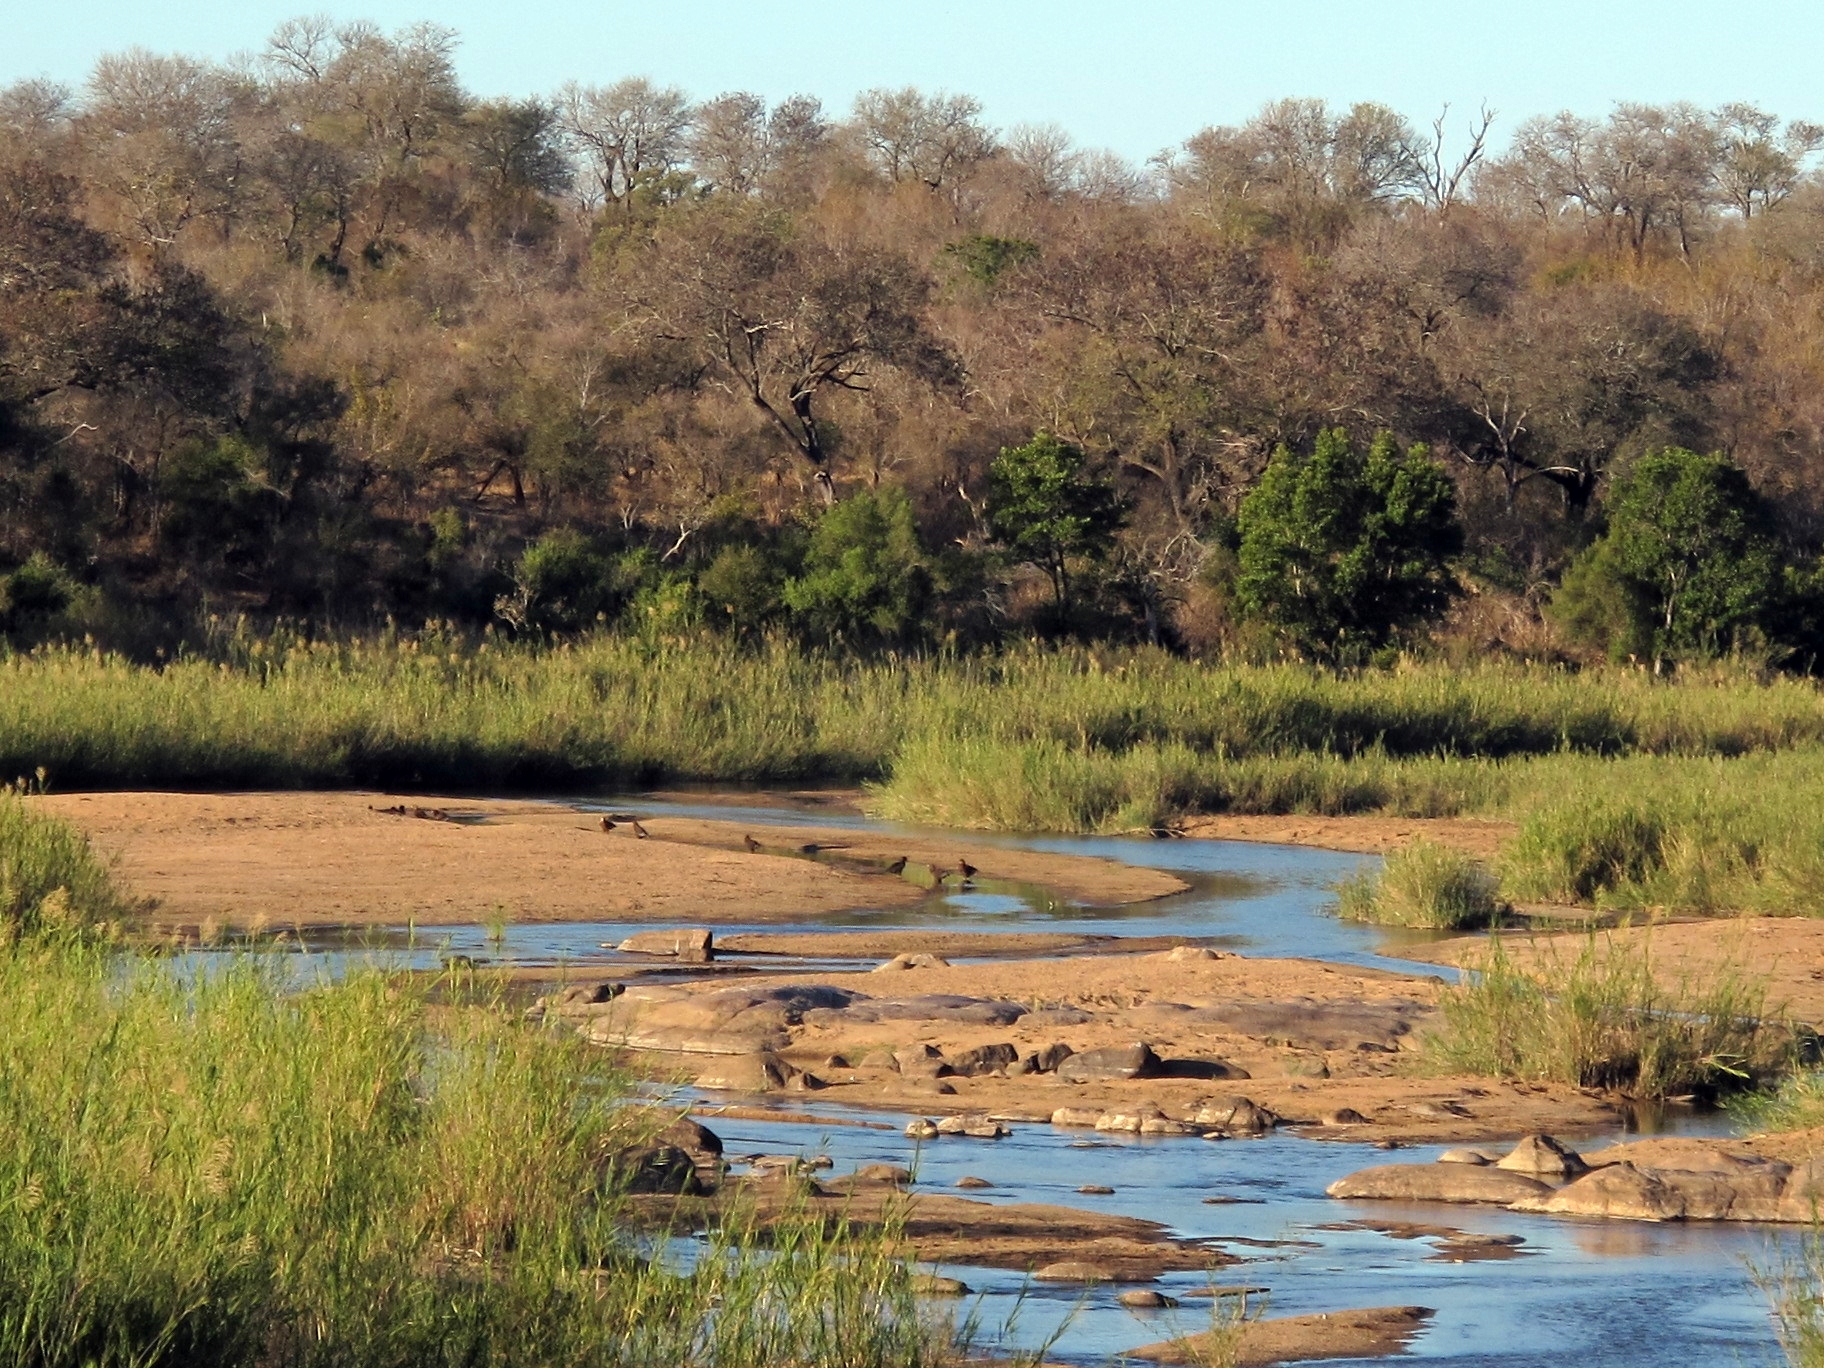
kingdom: Animalia
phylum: Chordata
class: Aves
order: Accipitriformes
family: Accipitridae
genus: Terathopius
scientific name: Terathopius ecaudatus
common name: Bateleur
